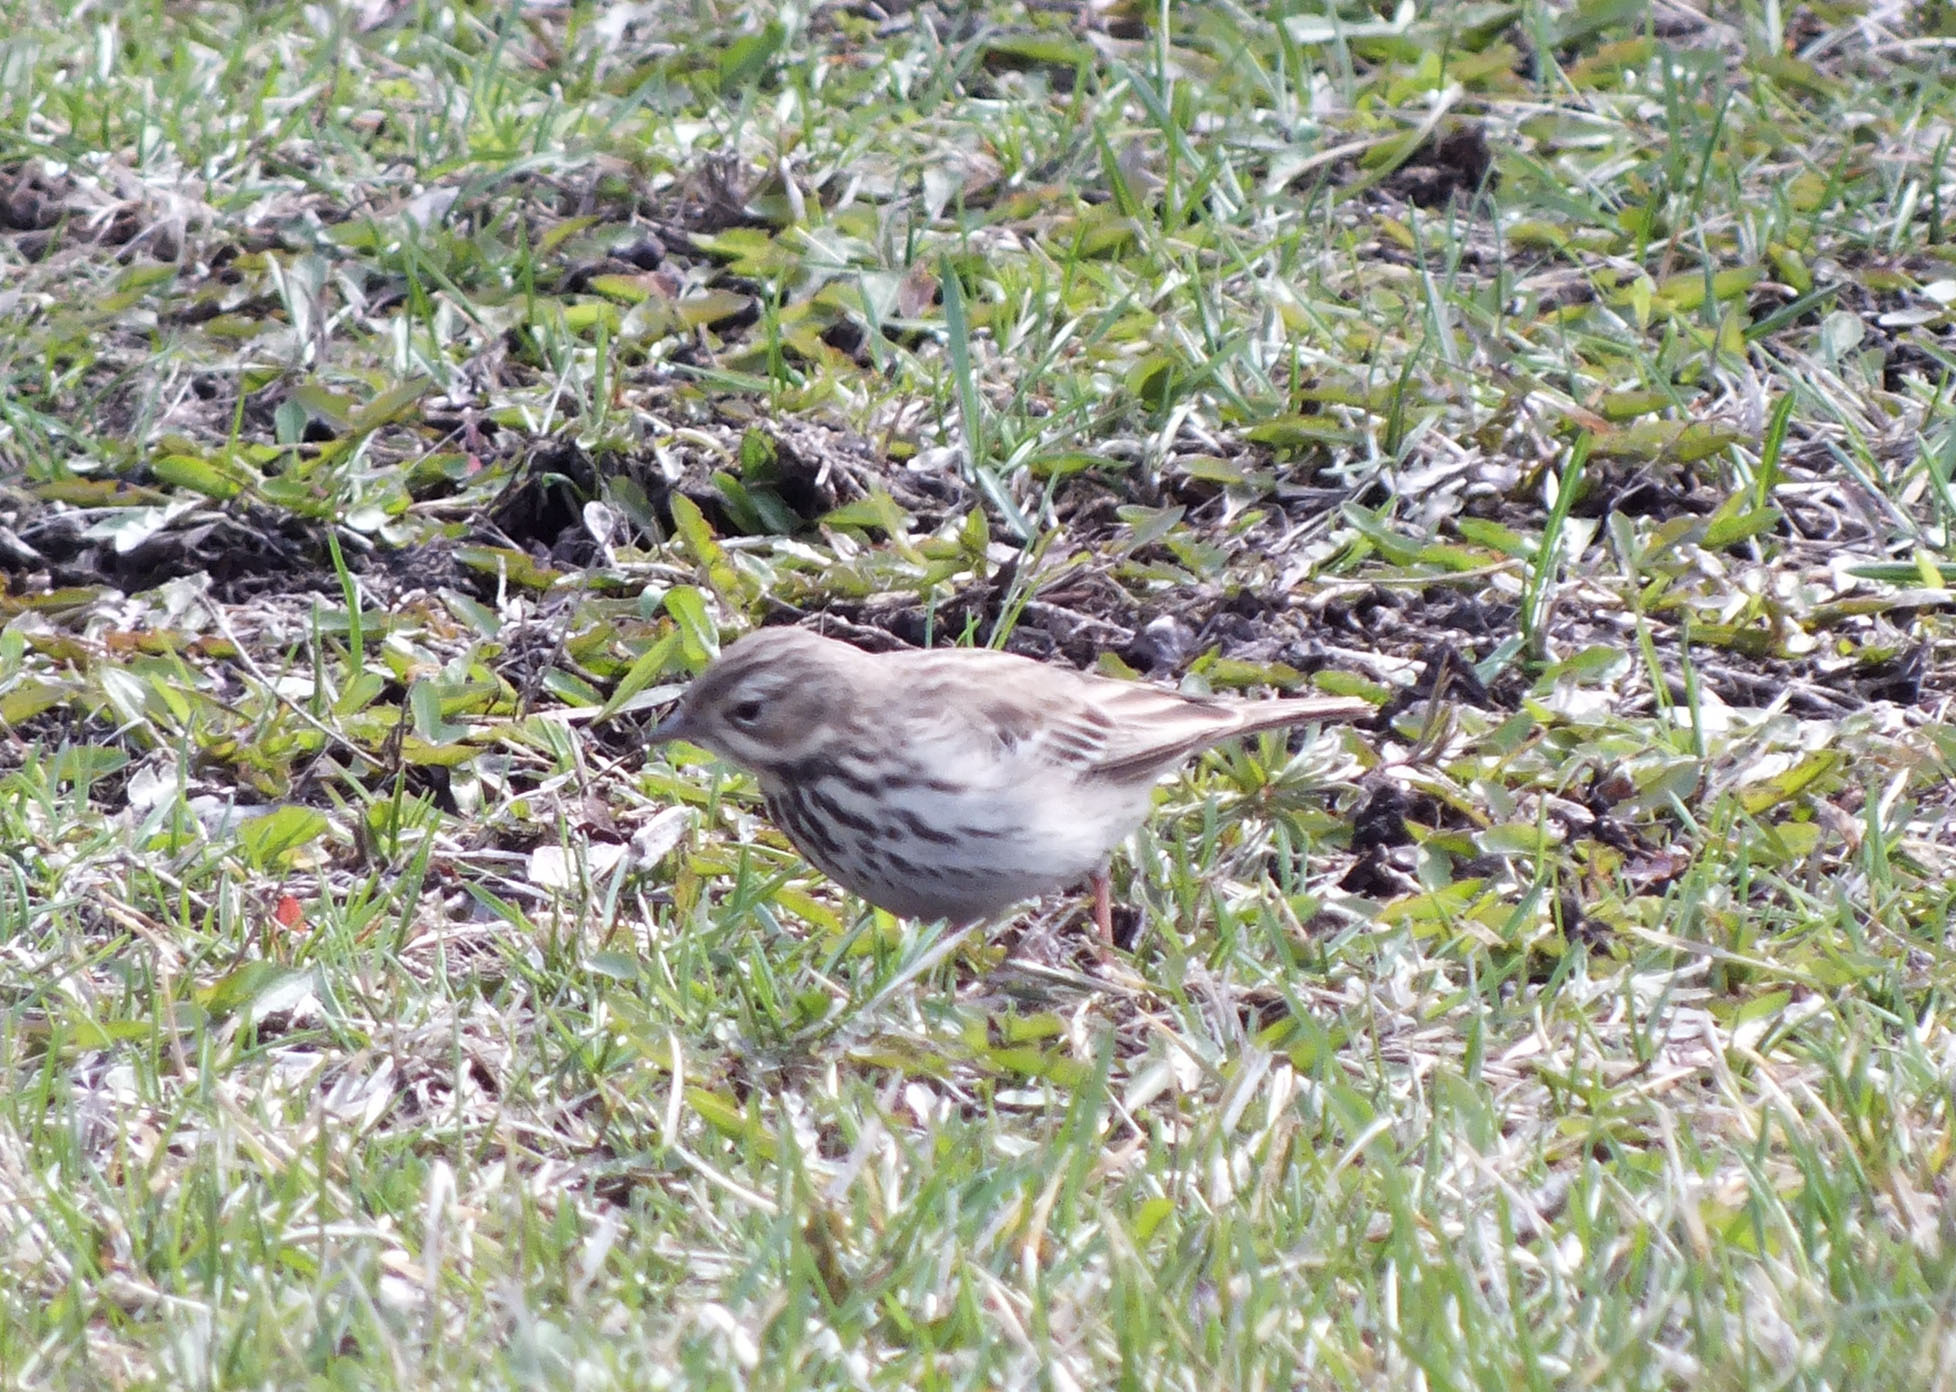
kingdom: Animalia
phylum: Chordata
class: Aves
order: Passeriformes
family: Motacillidae
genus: Anthus
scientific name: Anthus trivialis
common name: Tree pipit
